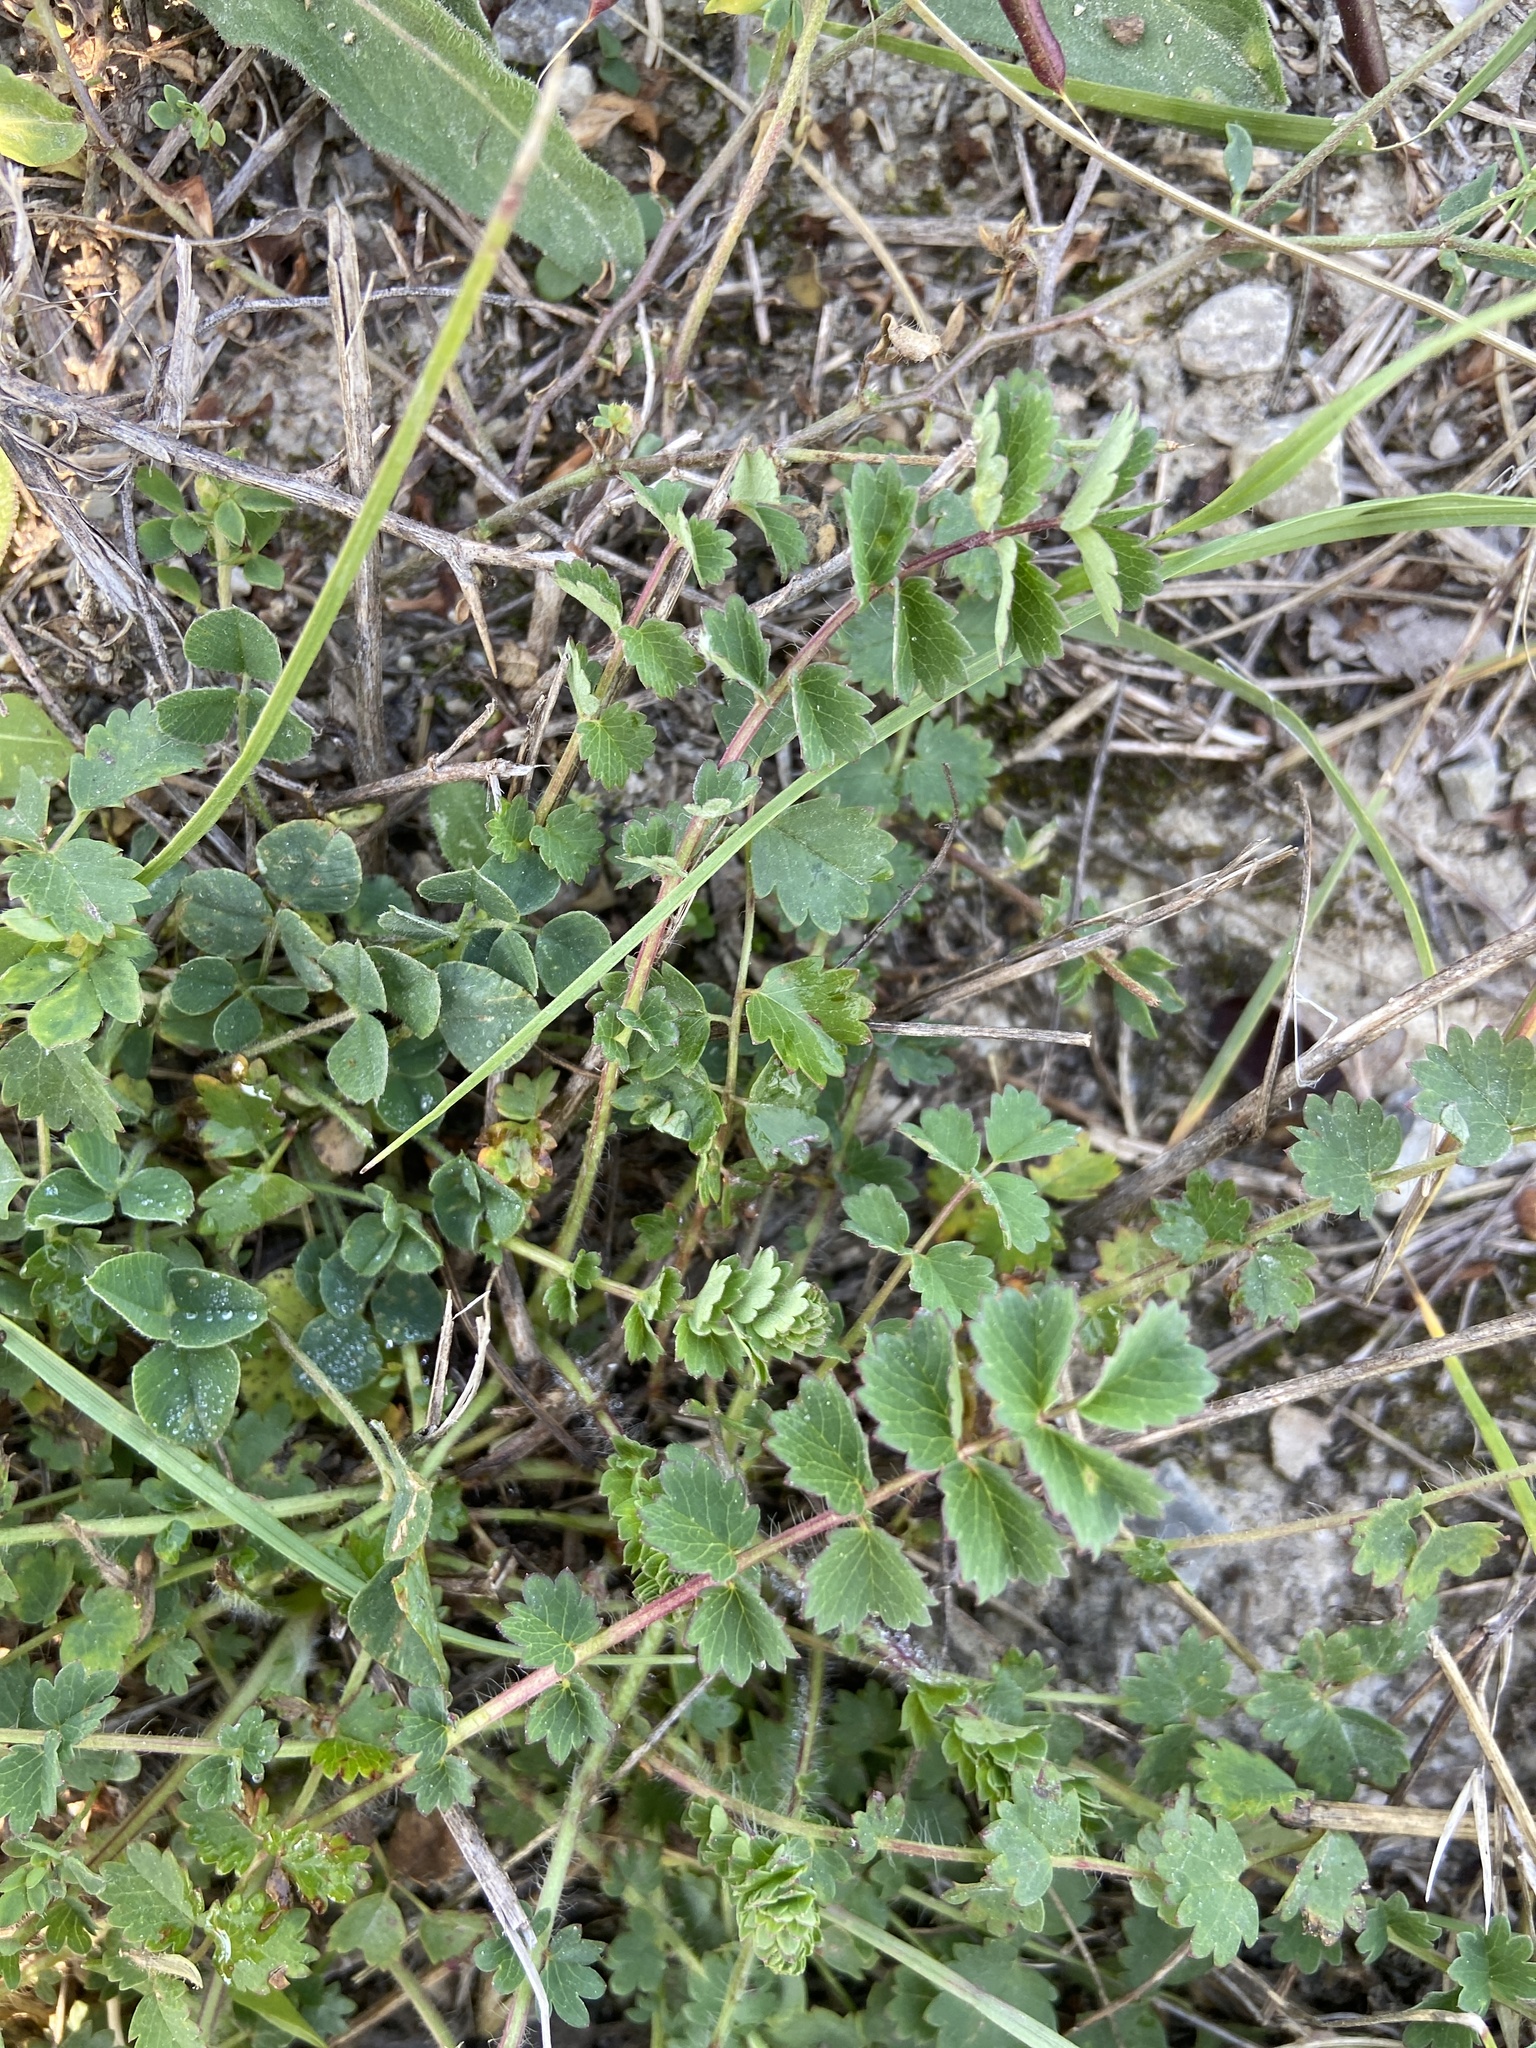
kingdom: Plantae
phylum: Tracheophyta
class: Magnoliopsida
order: Rosales
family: Rosaceae
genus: Poterium
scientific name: Poterium sanguisorba
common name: Salad burnet
